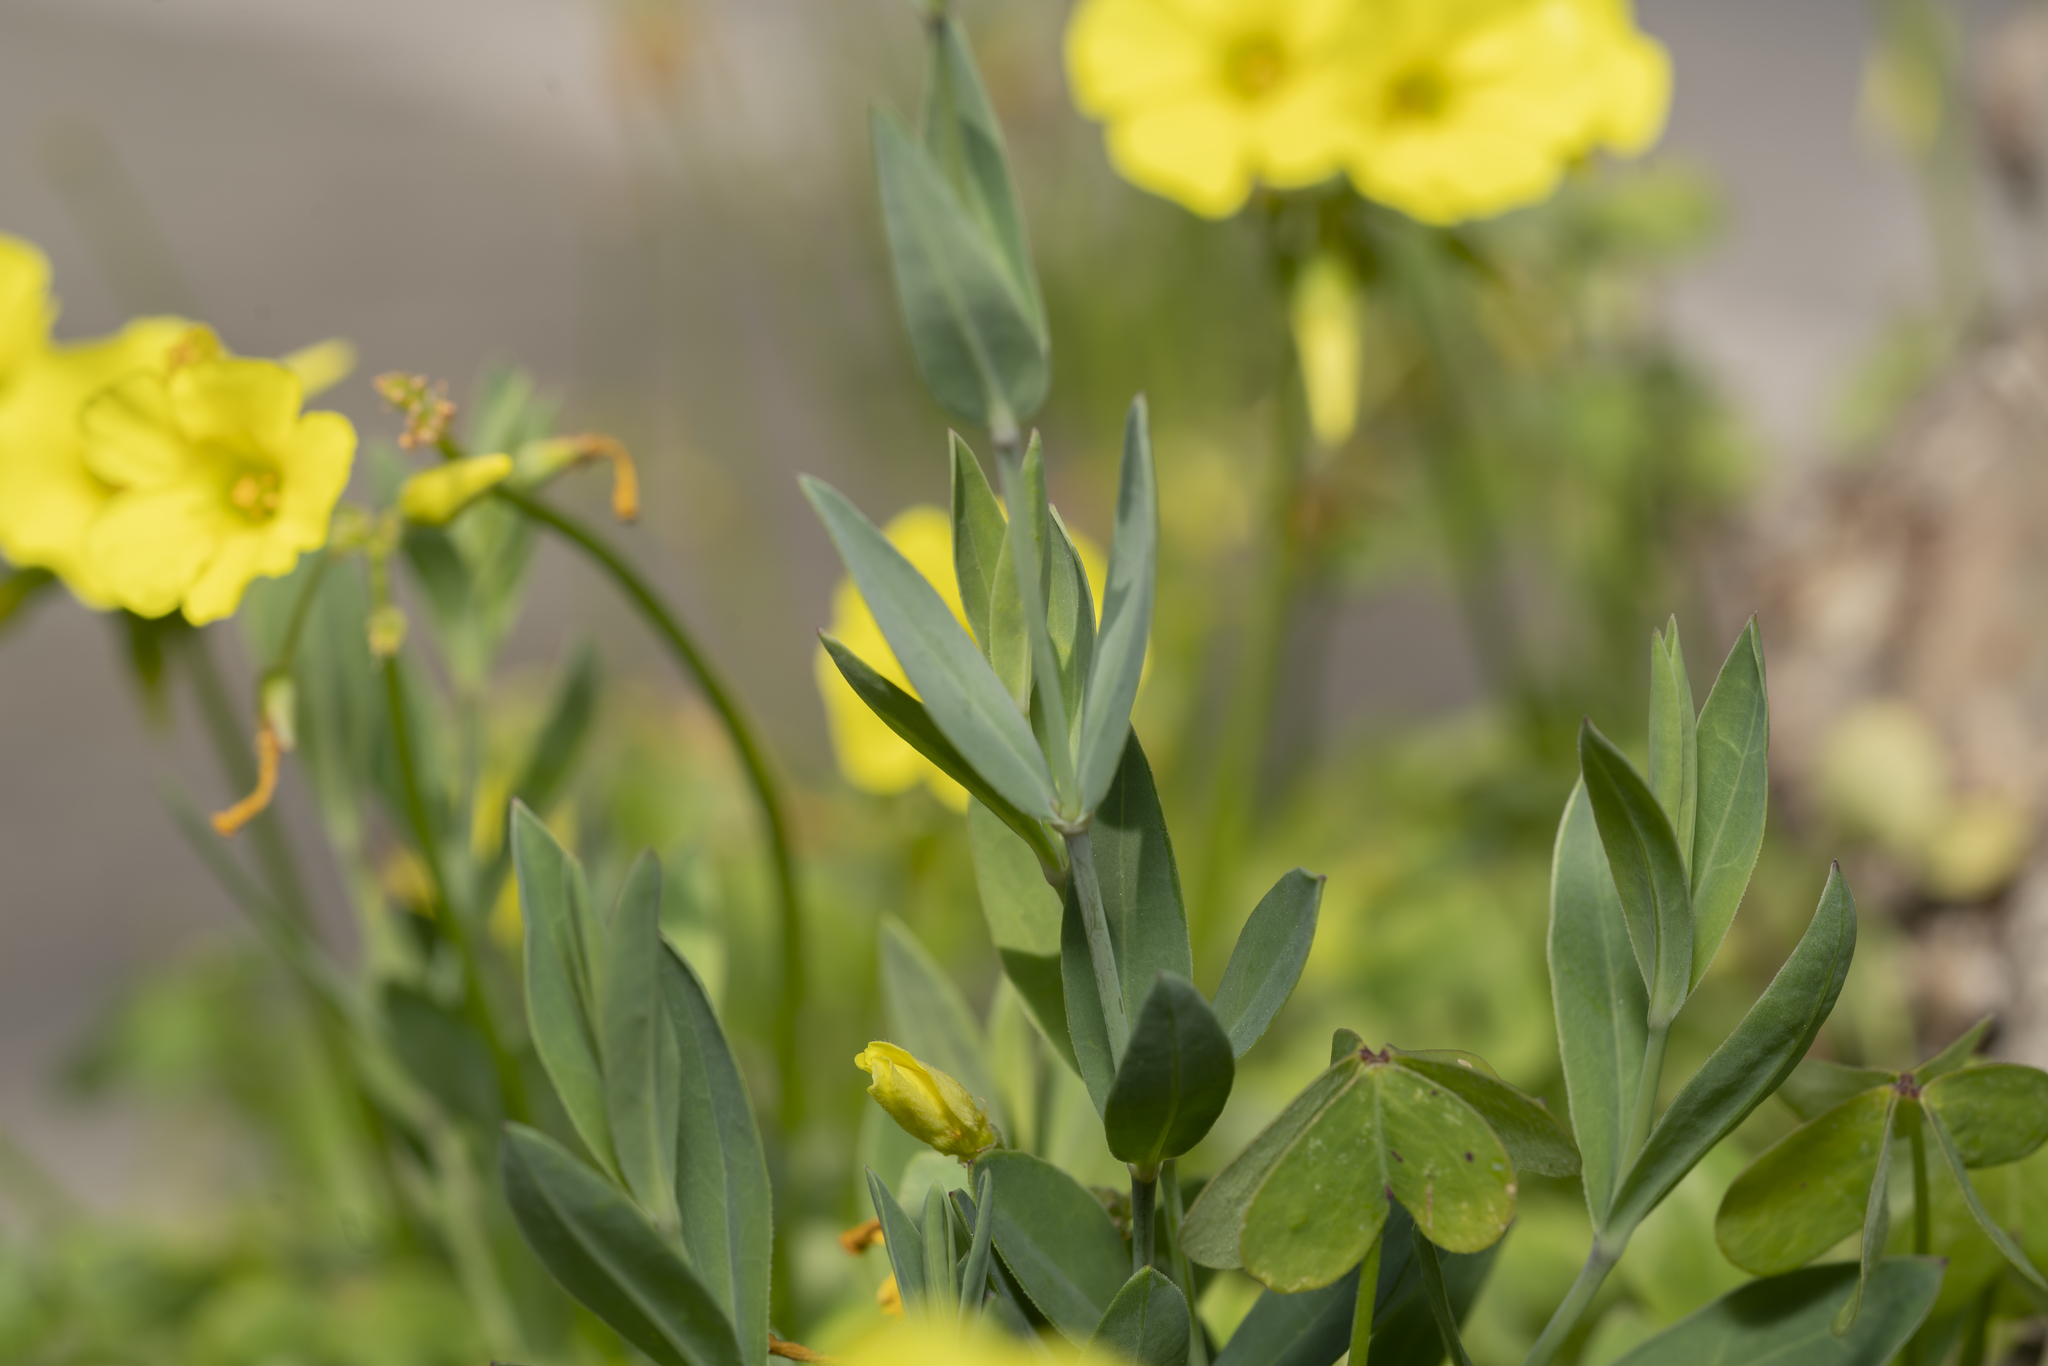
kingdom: Plantae
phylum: Tracheophyta
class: Magnoliopsida
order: Caryophyllales
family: Caryophyllaceae
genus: Silene
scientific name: Silene vulgaris
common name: Bladder campion
